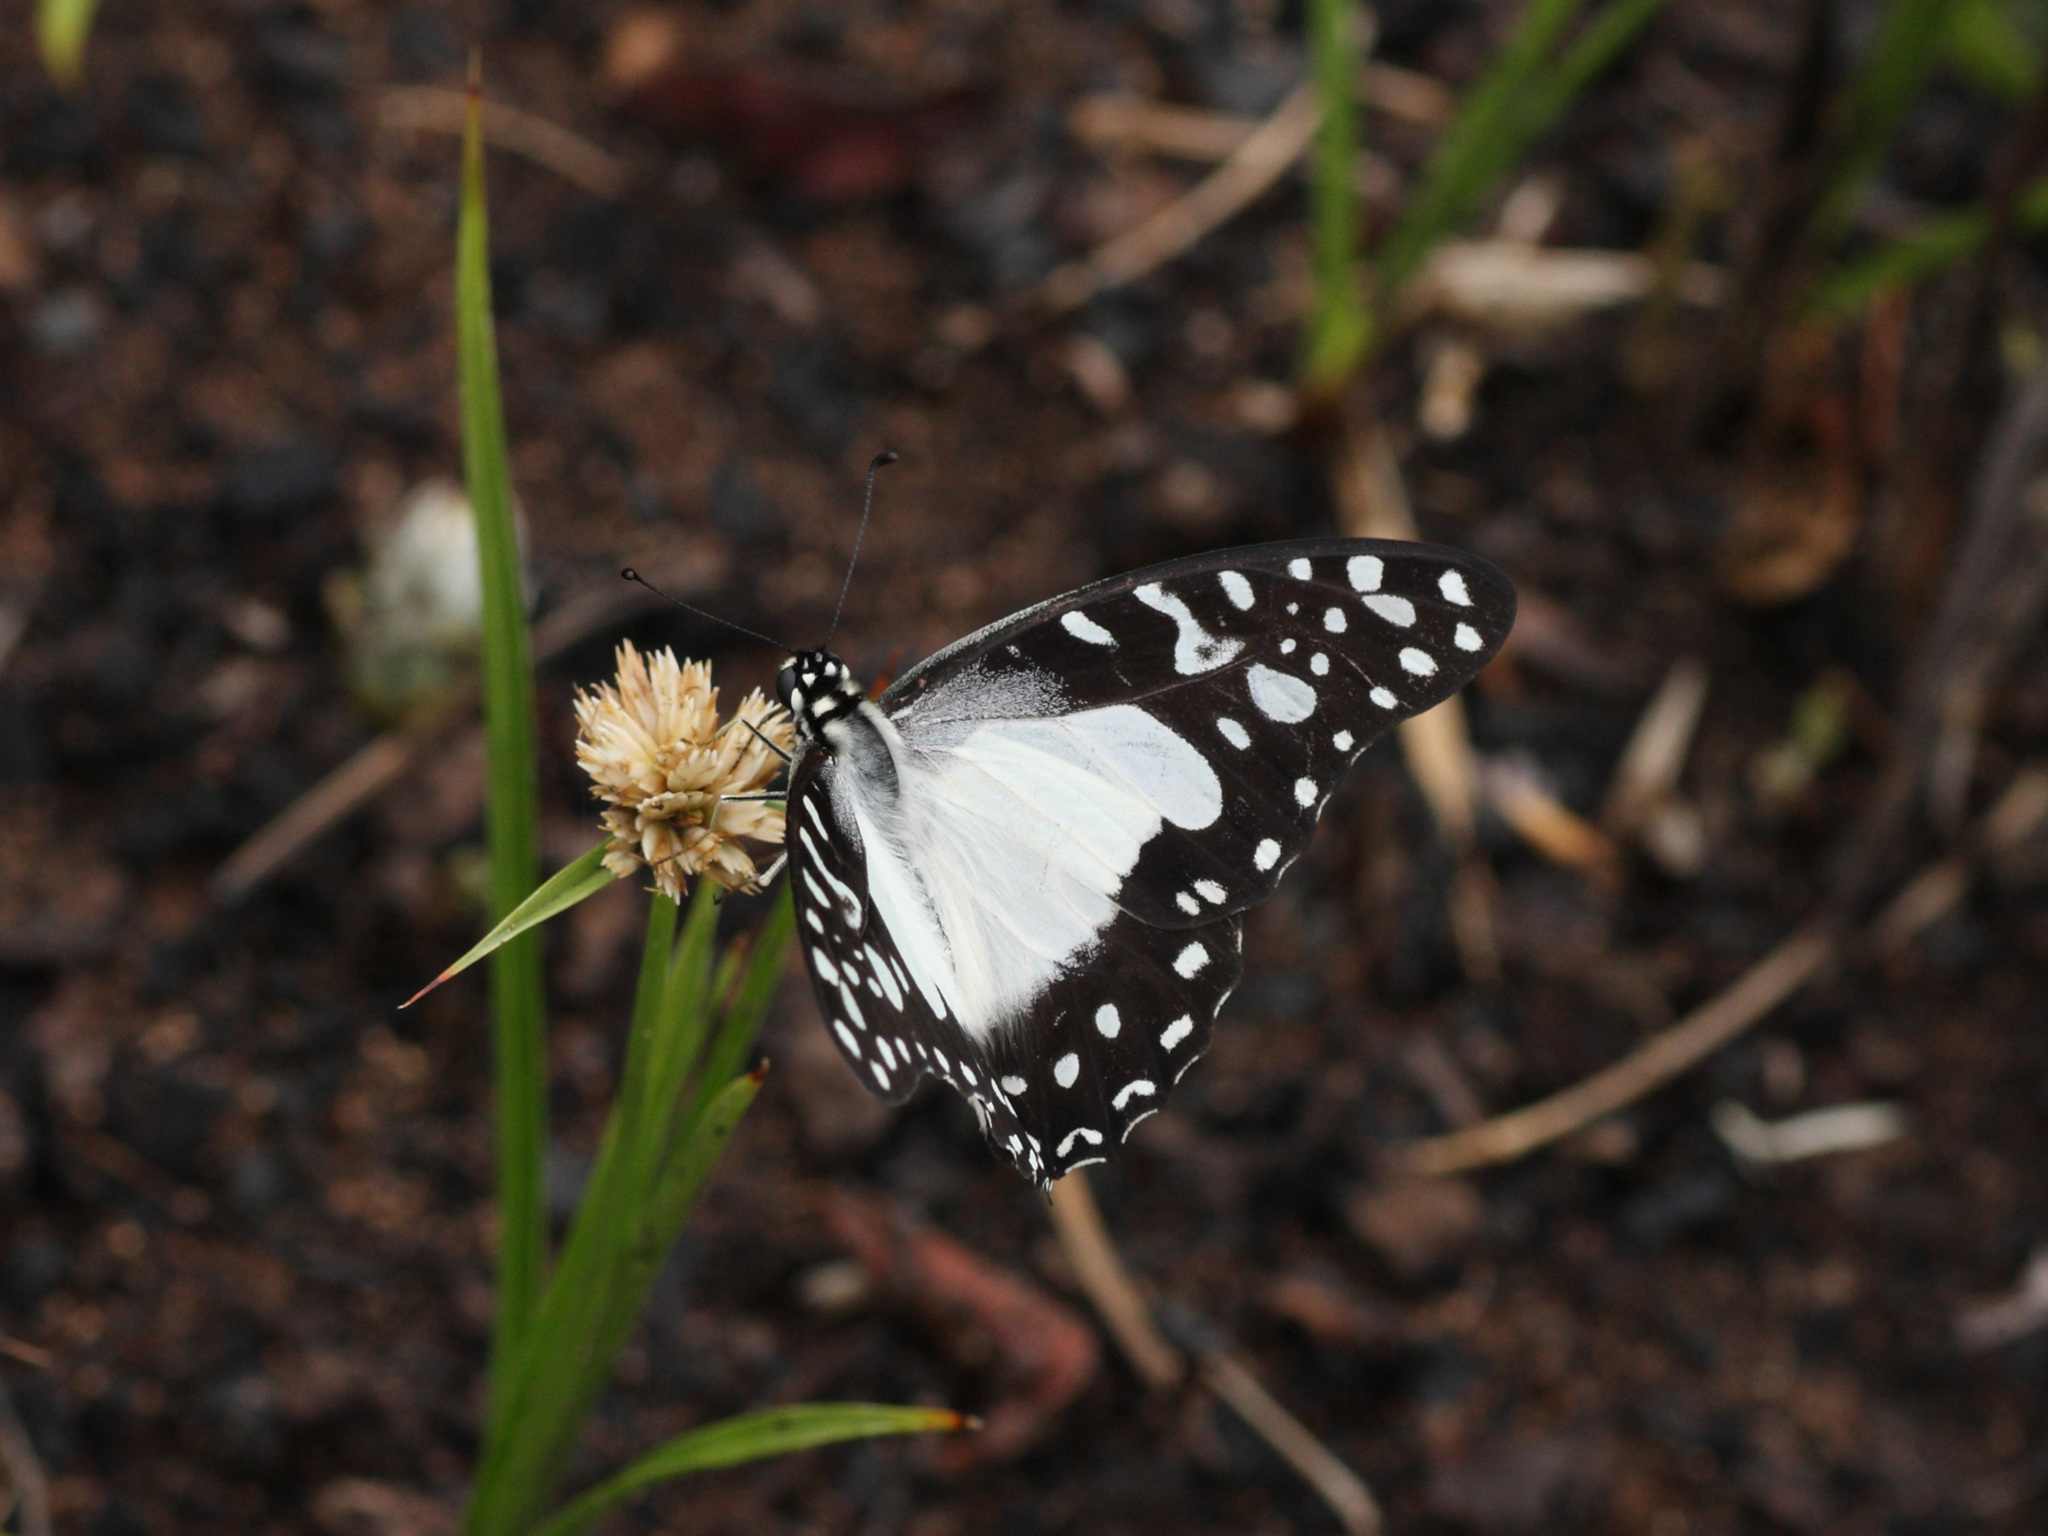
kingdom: Animalia
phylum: Arthropoda
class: Insecta
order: Lepidoptera
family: Papilionidae
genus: Graphium
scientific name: Graphium angolanus
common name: Angola white-lady swordtail
